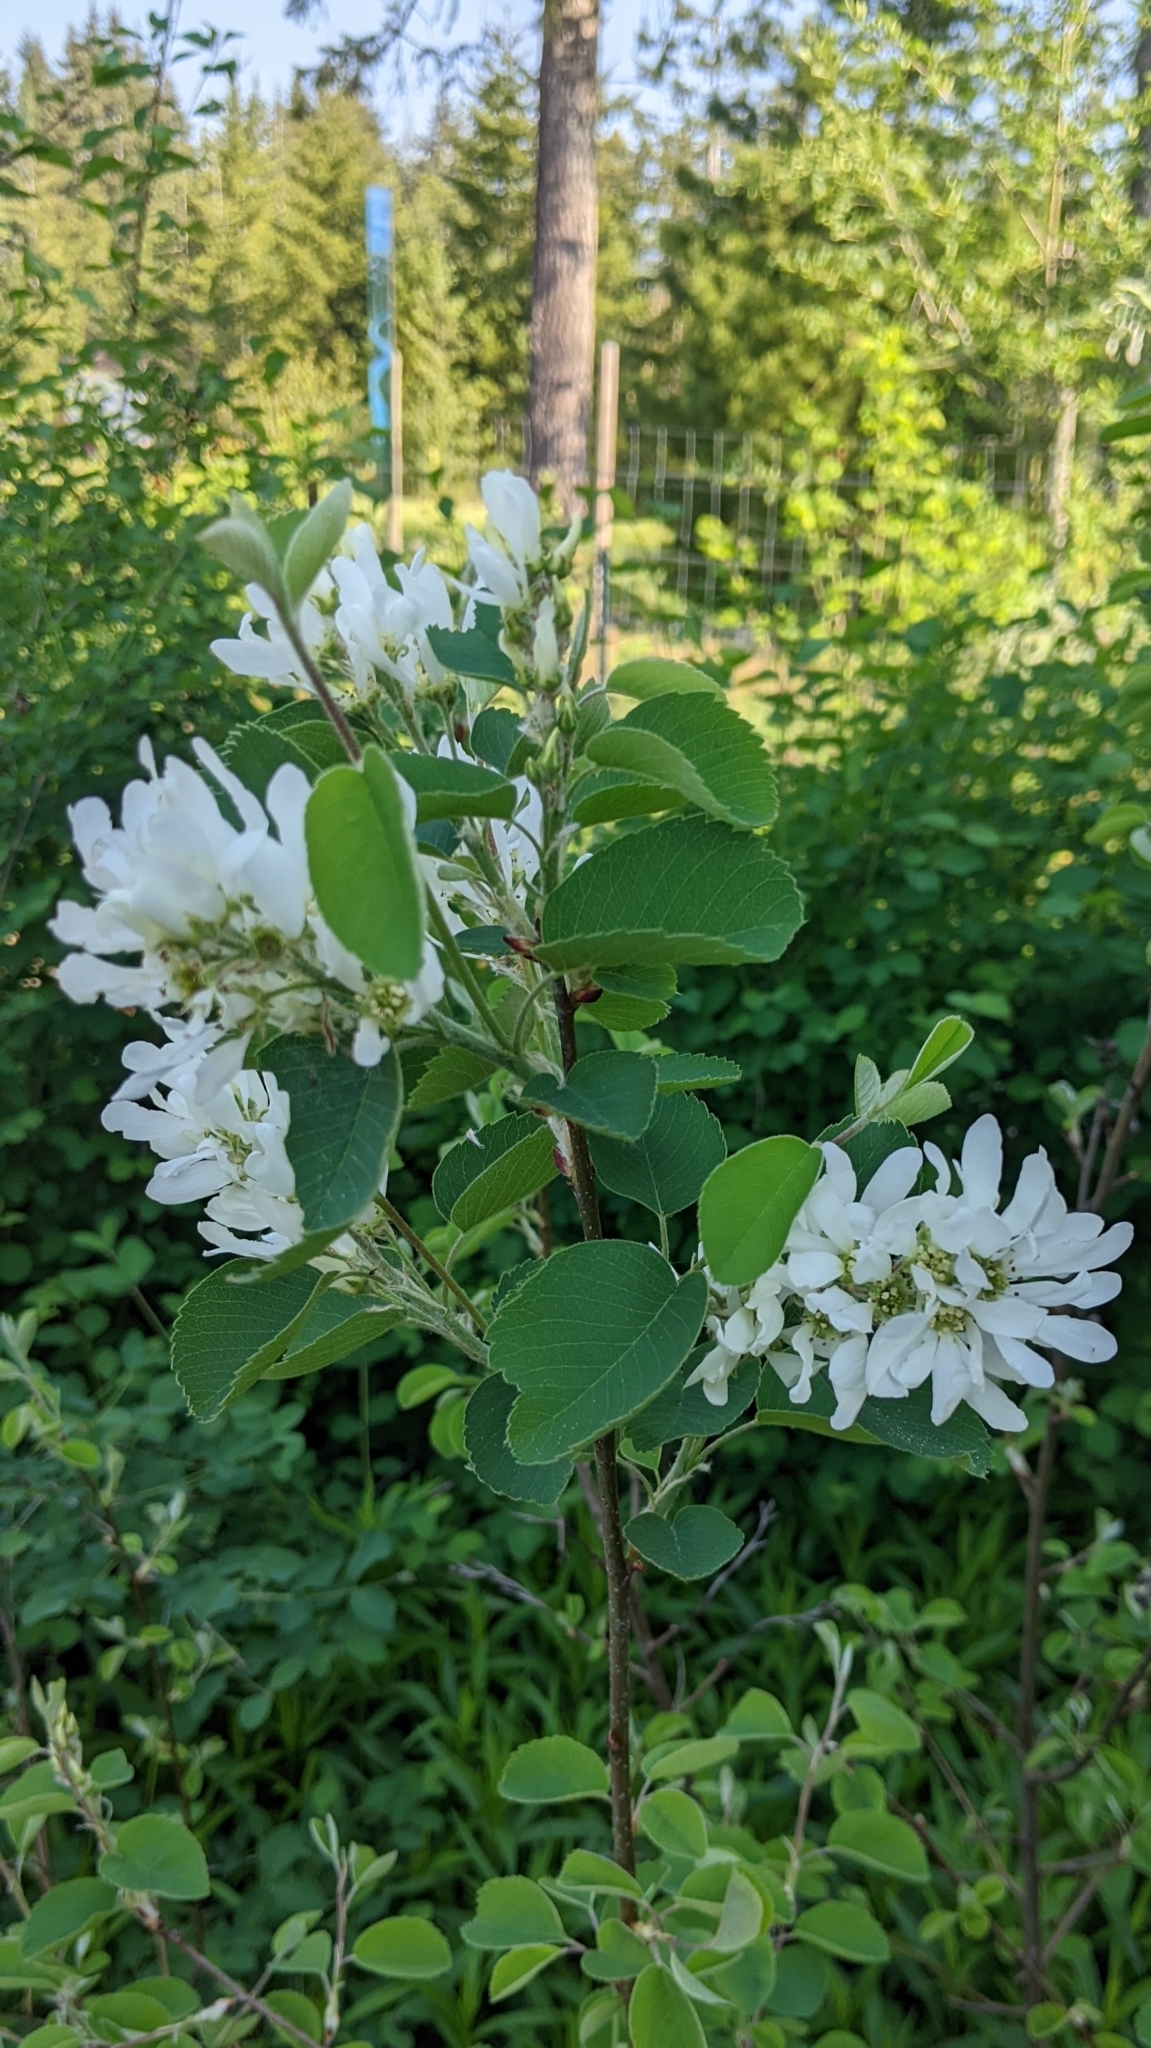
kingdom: Plantae
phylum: Tracheophyta
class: Magnoliopsida
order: Rosales
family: Rosaceae
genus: Amelanchier
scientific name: Amelanchier alnifolia
